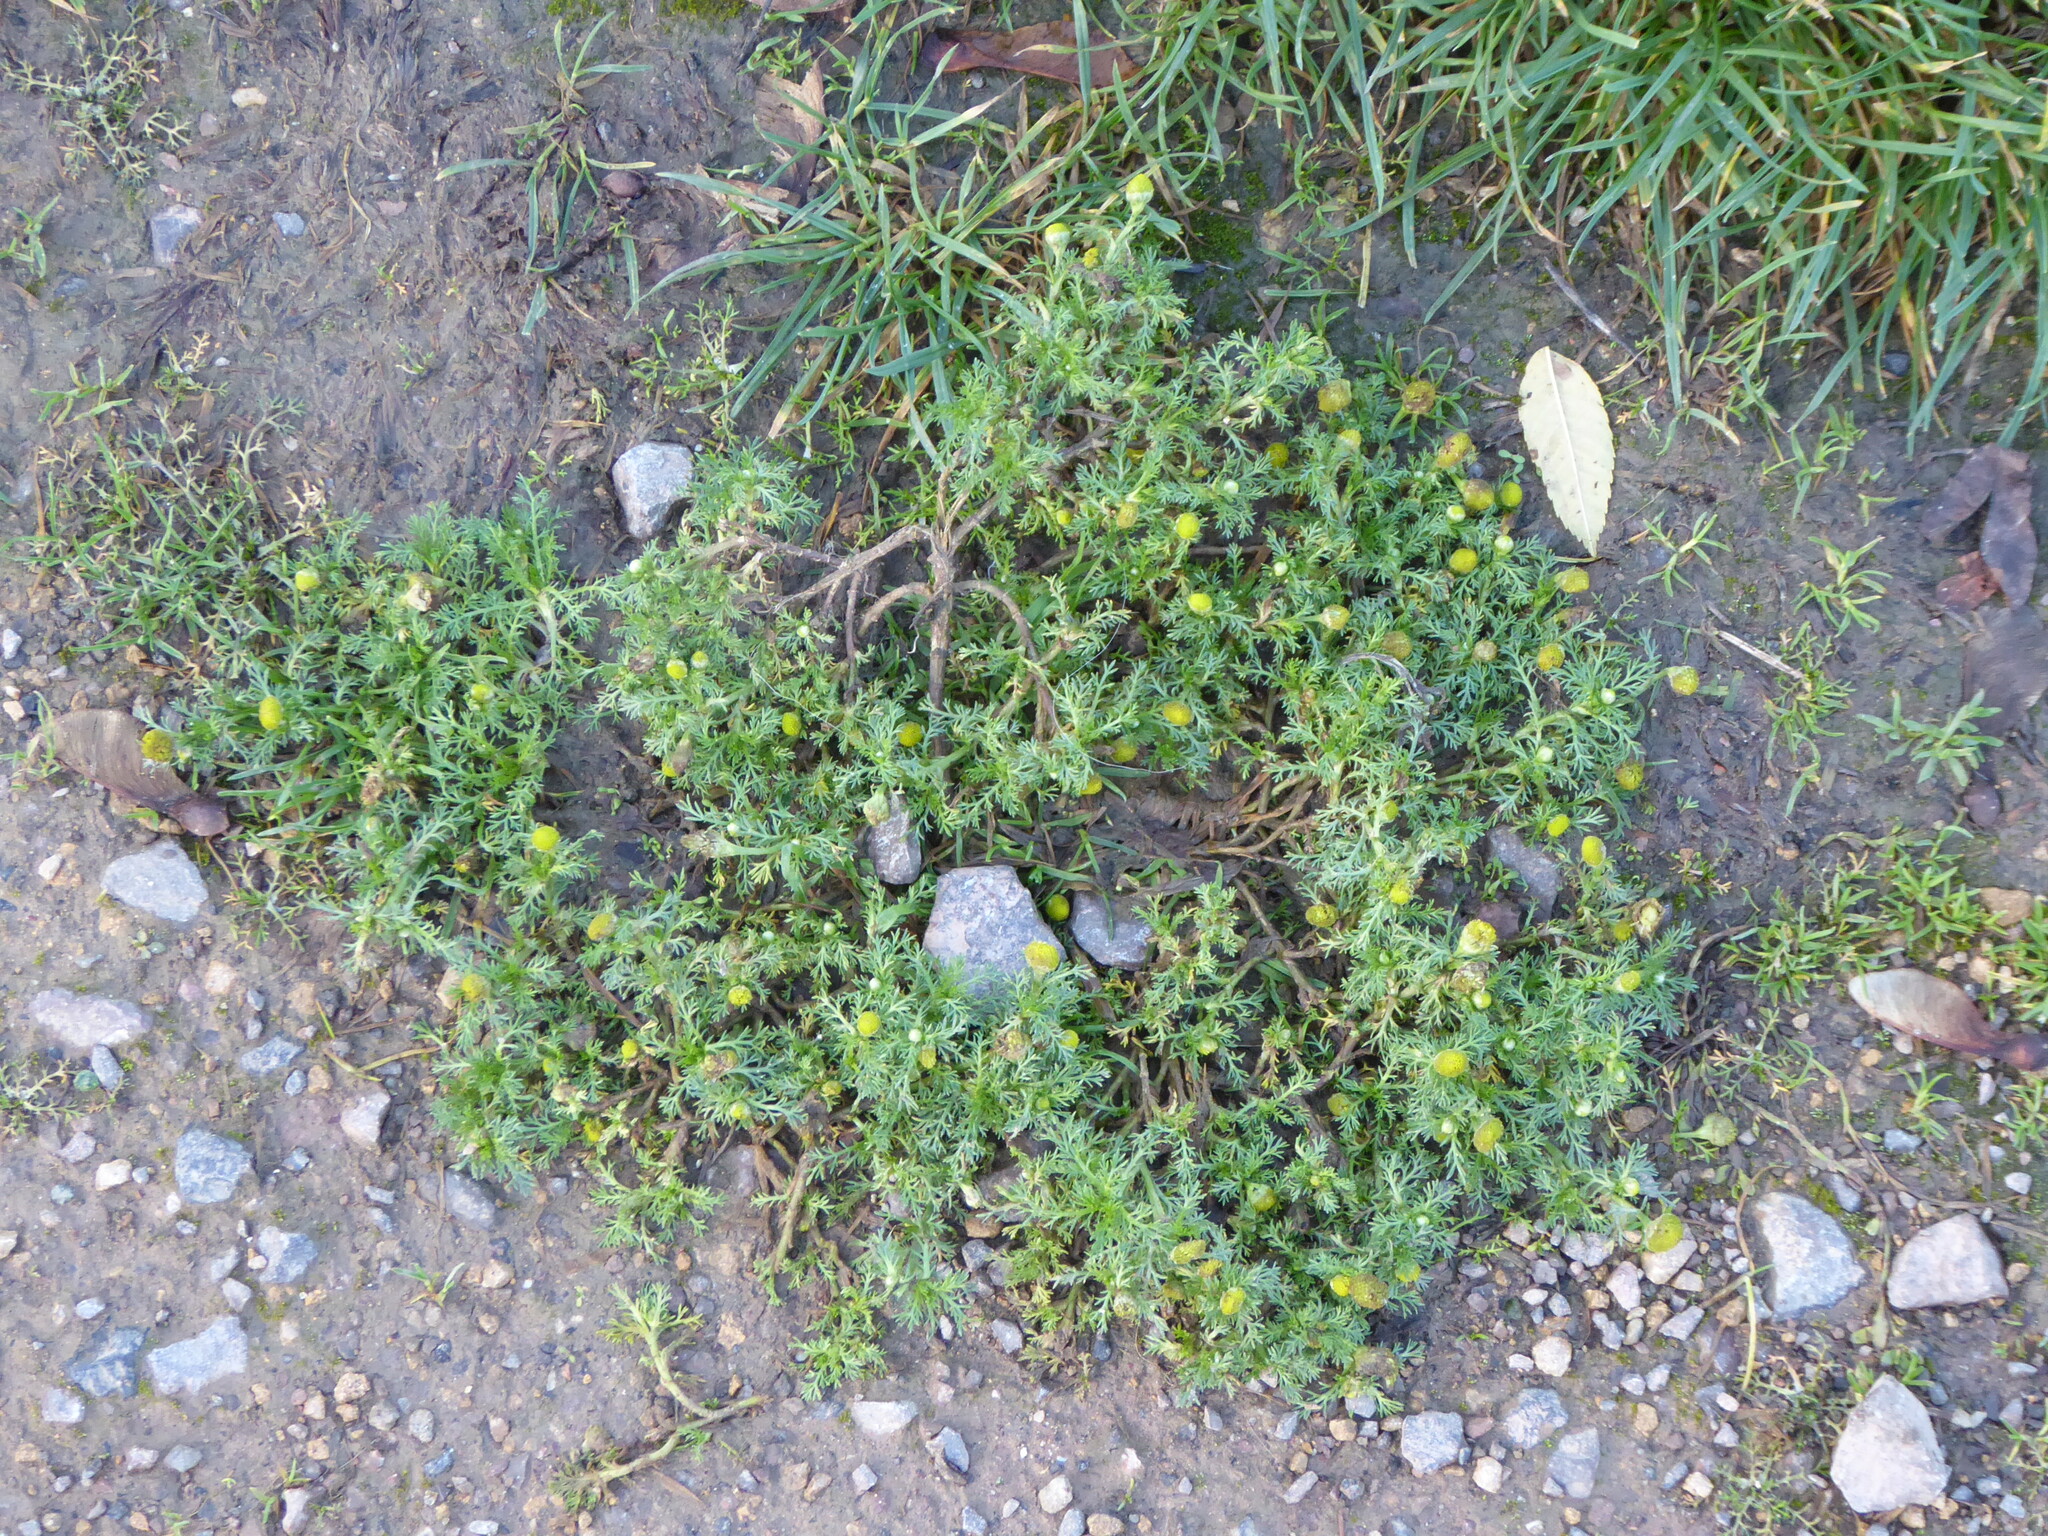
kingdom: Plantae
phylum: Tracheophyta
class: Magnoliopsida
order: Asterales
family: Asteraceae
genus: Matricaria
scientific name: Matricaria discoidea
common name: Disc mayweed
